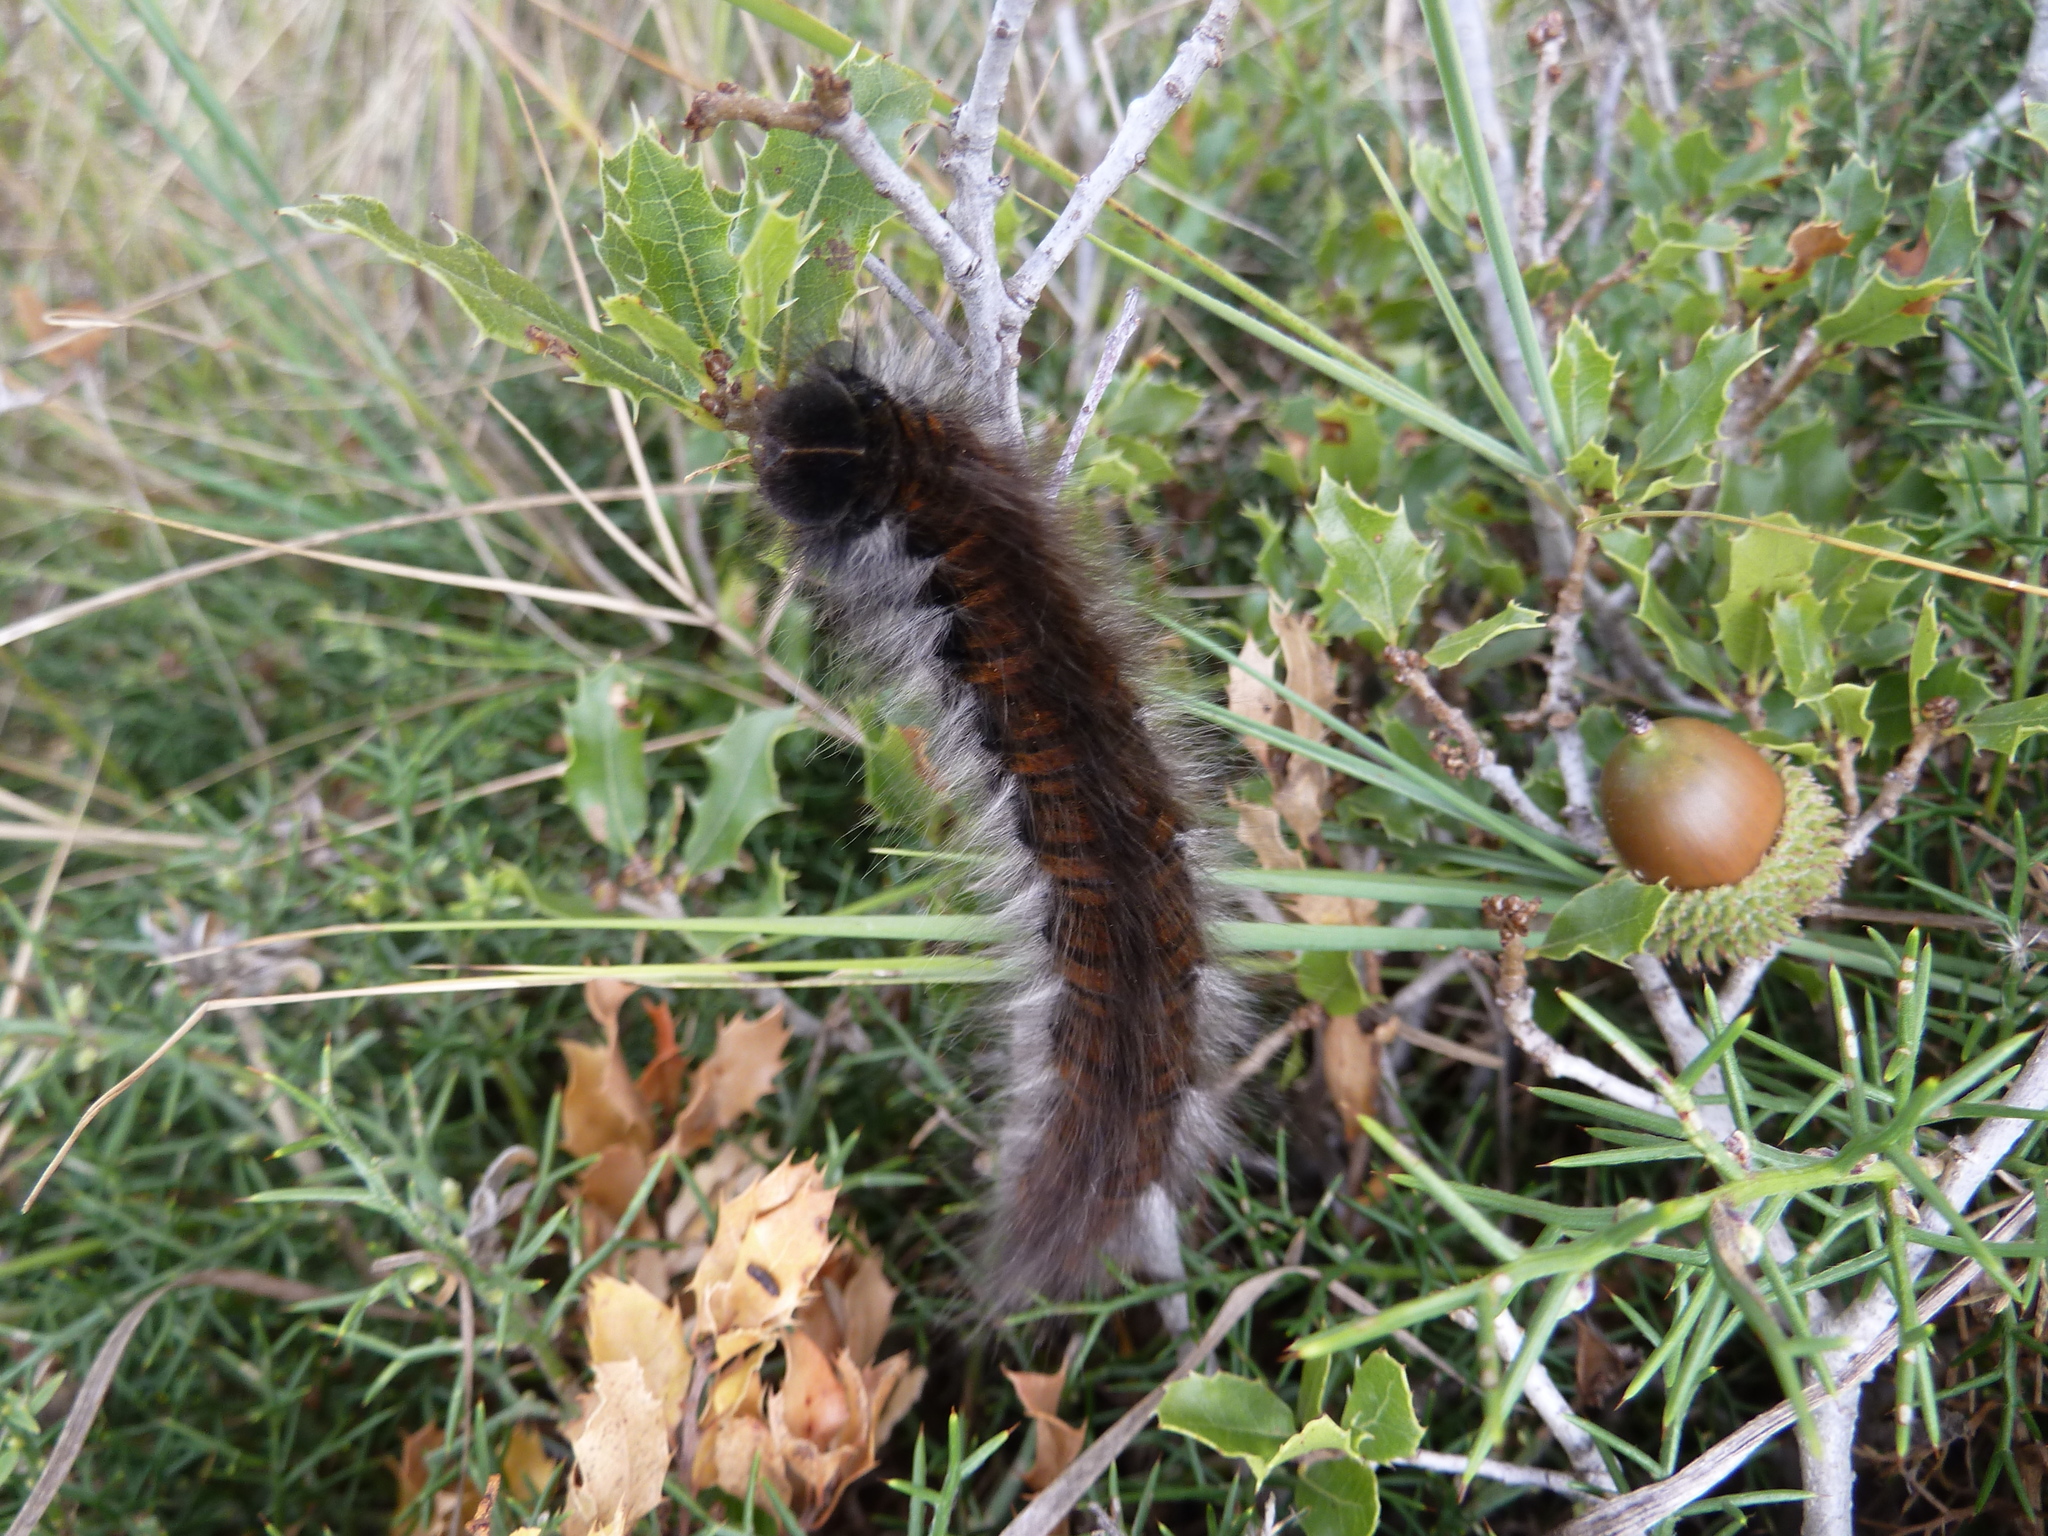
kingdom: Animalia
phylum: Arthropoda
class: Insecta
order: Lepidoptera
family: Lasiocampidae
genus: Macrothylacia
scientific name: Macrothylacia rubi
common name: Fox moth
